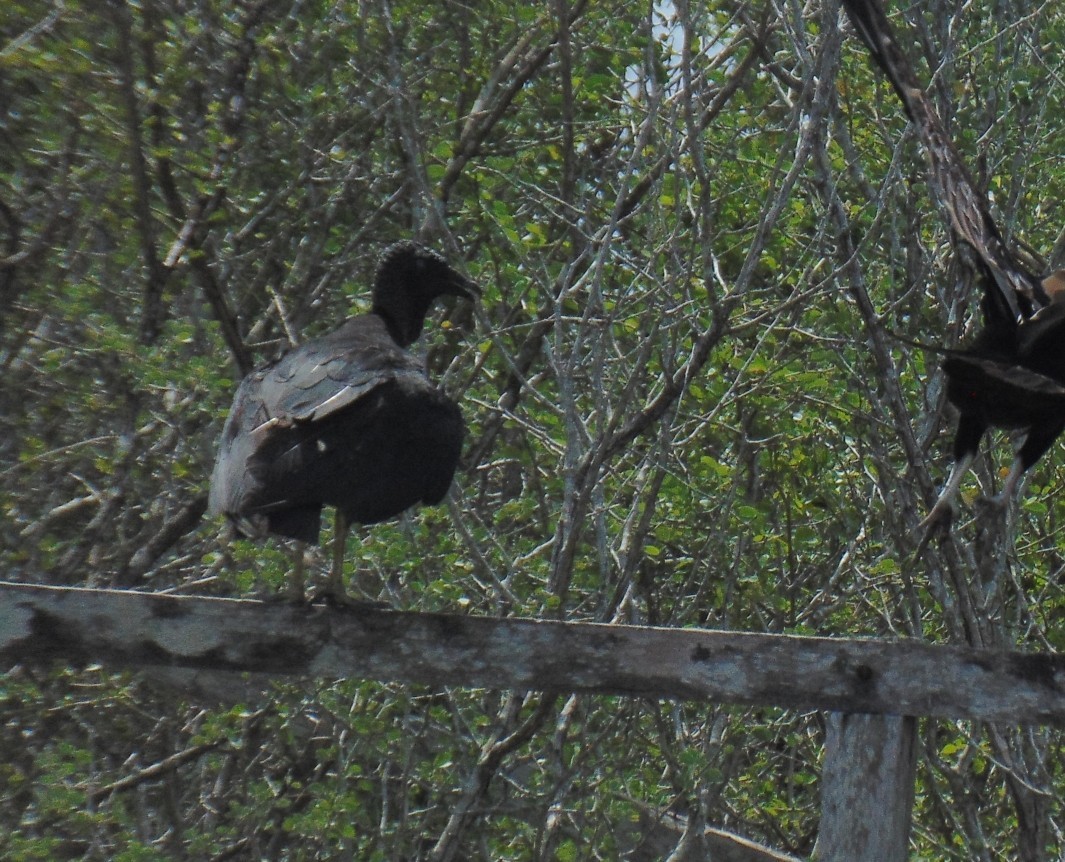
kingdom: Animalia
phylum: Chordata
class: Aves
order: Accipitriformes
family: Cathartidae
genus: Coragyps
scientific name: Coragyps atratus
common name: Black vulture
